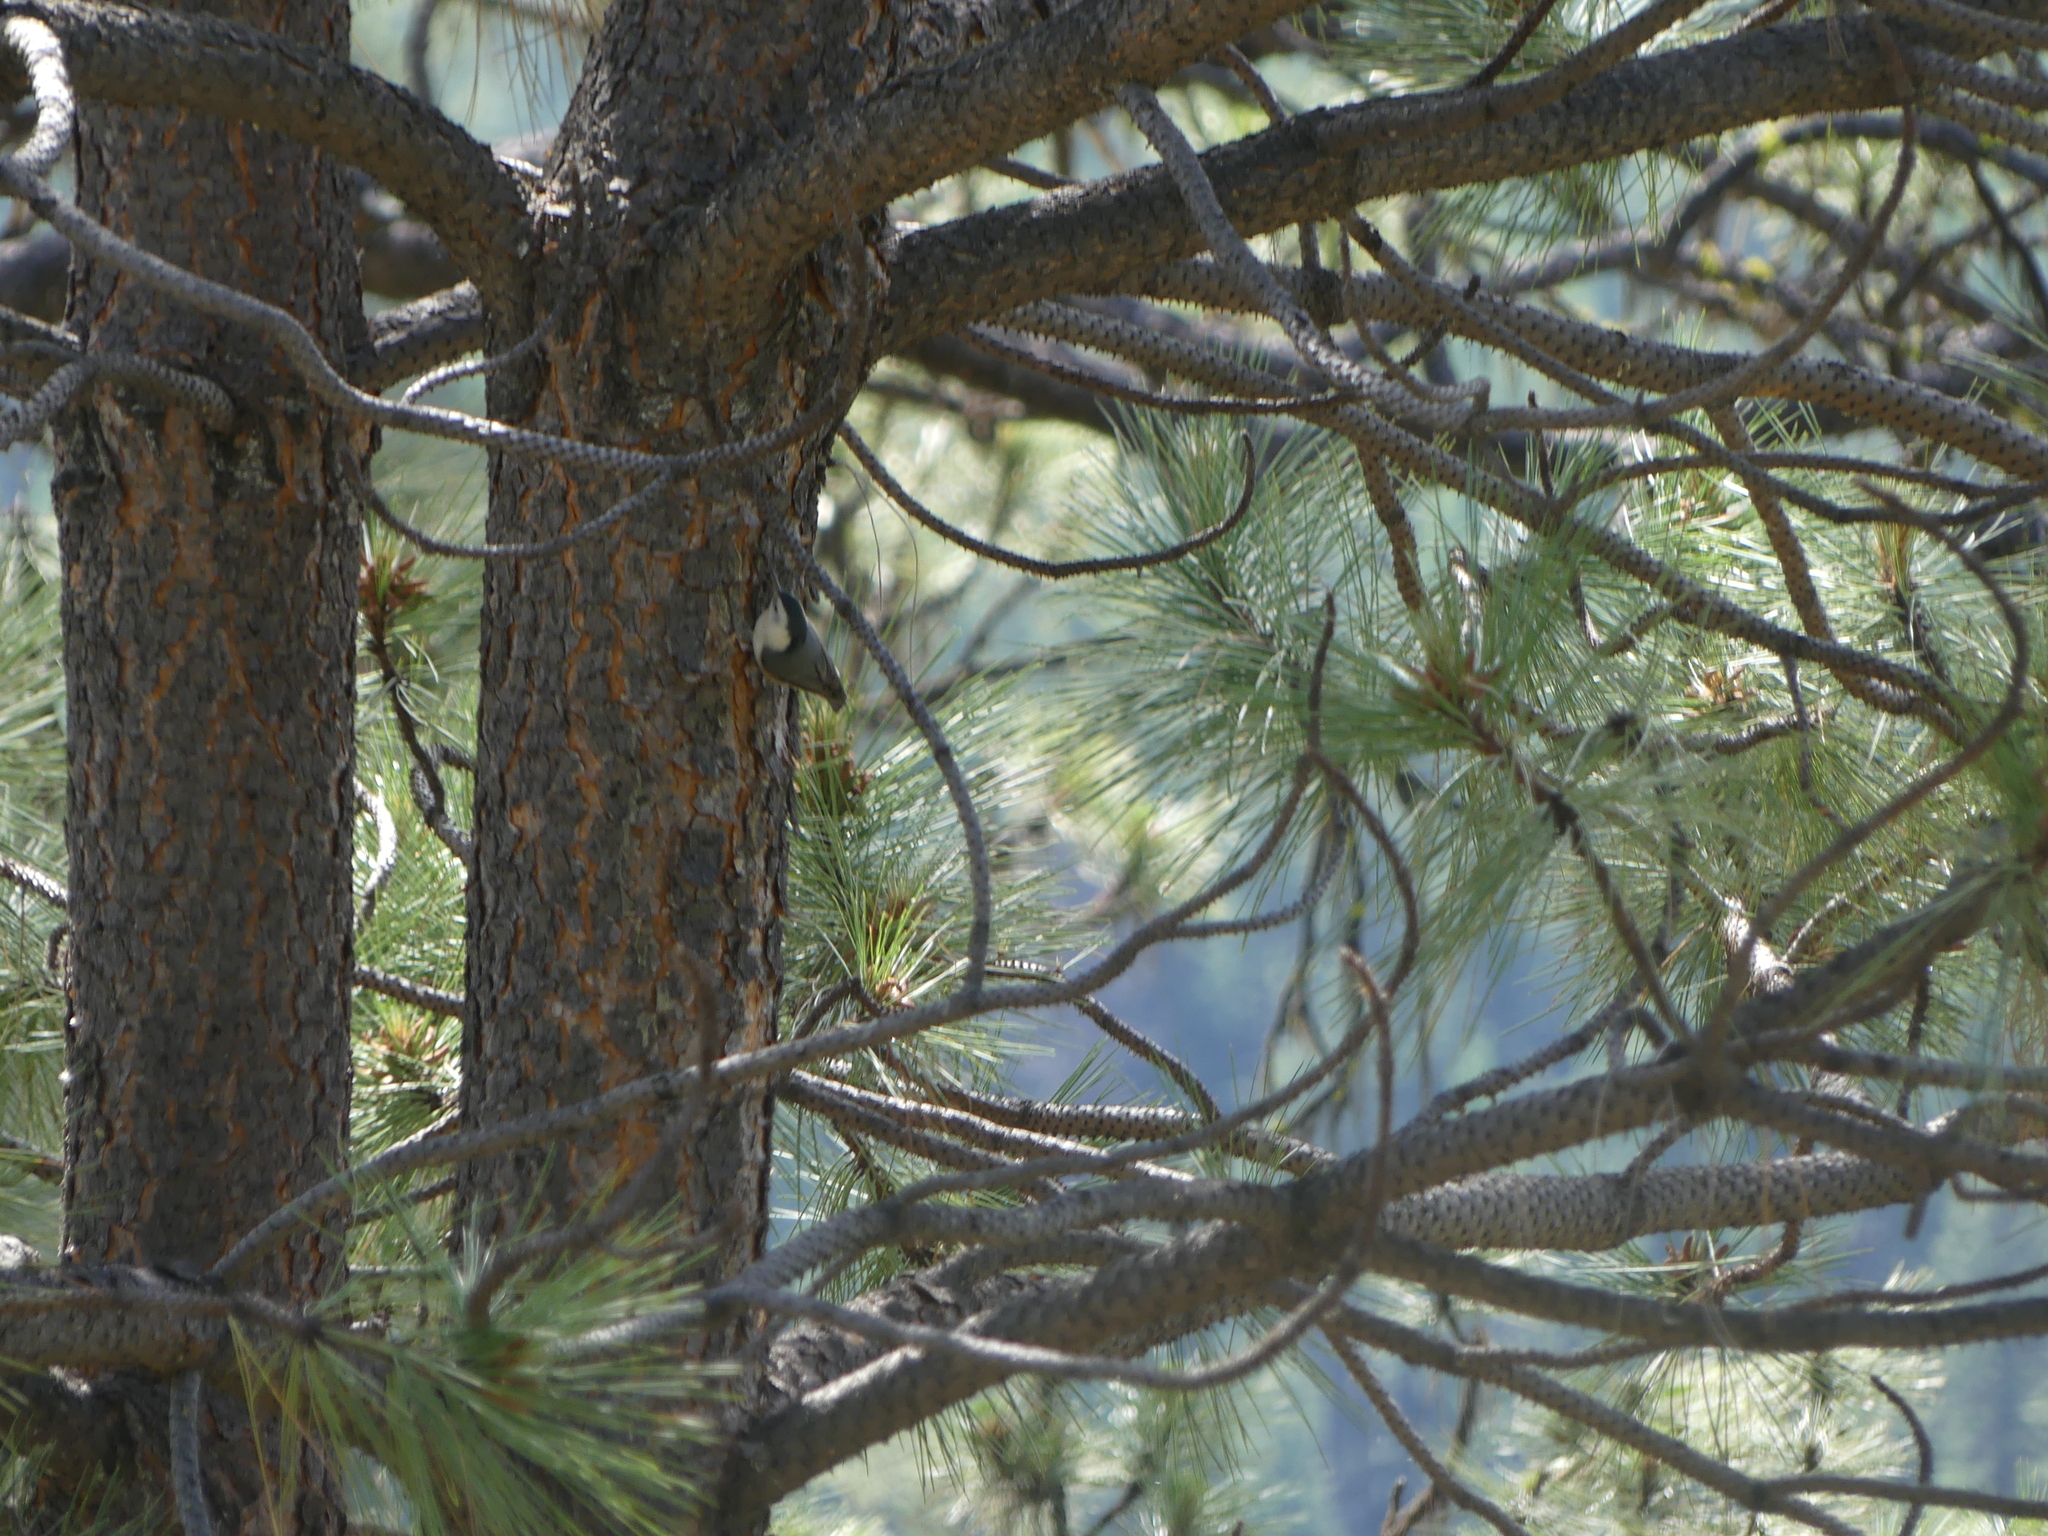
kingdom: Animalia
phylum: Chordata
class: Aves
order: Passeriformes
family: Sittidae
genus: Sitta
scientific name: Sitta carolinensis
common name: White-breasted nuthatch
